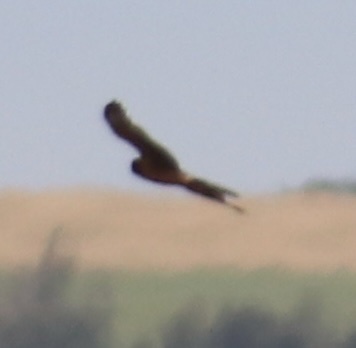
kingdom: Animalia
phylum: Chordata
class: Aves
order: Accipitriformes
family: Accipitridae
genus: Circus
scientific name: Circus cyaneus
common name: Hen harrier
